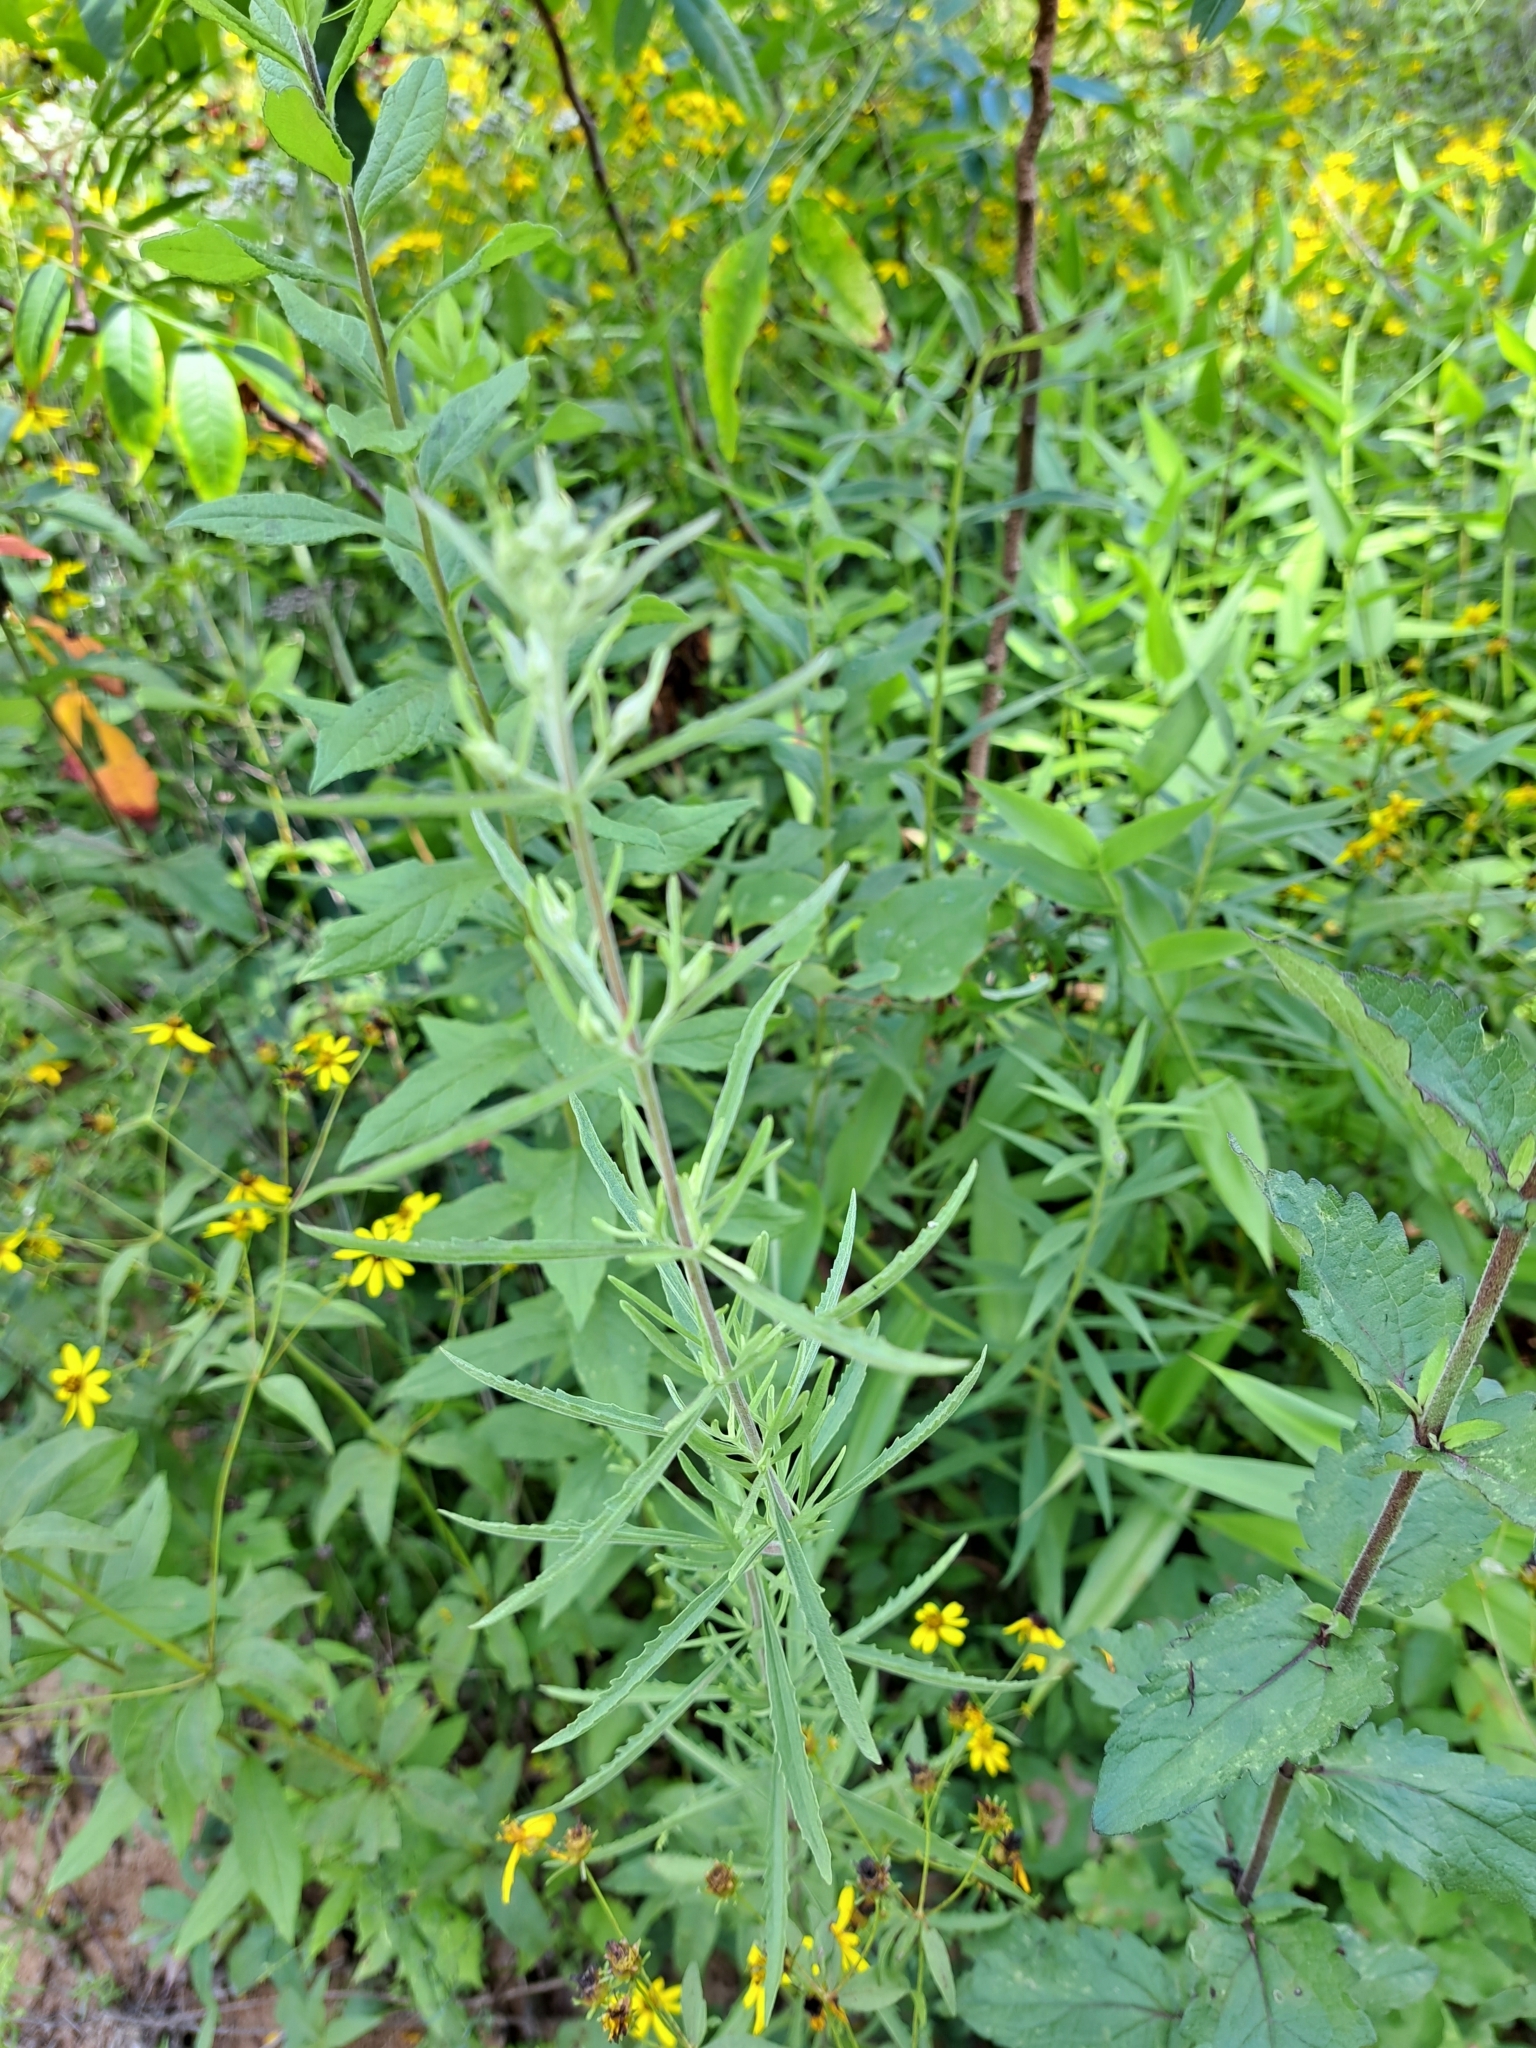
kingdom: Plantae
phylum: Tracheophyta
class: Magnoliopsida
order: Asterales
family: Asteraceae
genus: Eupatorium
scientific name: Eupatorium torreyanum
